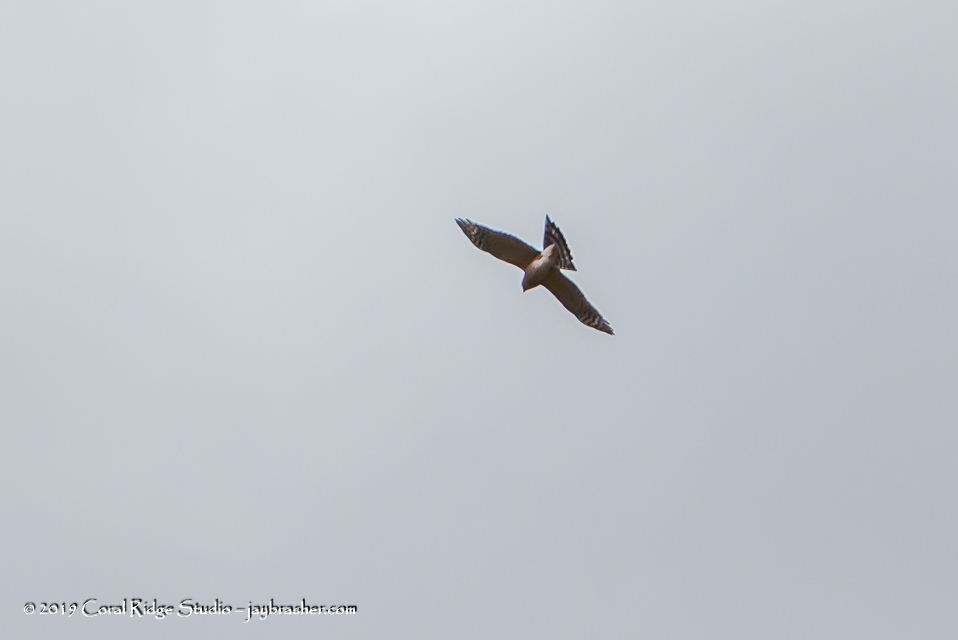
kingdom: Animalia
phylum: Chordata
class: Aves
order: Accipitriformes
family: Accipitridae
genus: Buteo
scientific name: Buteo lineatus
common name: Red-shouldered hawk
